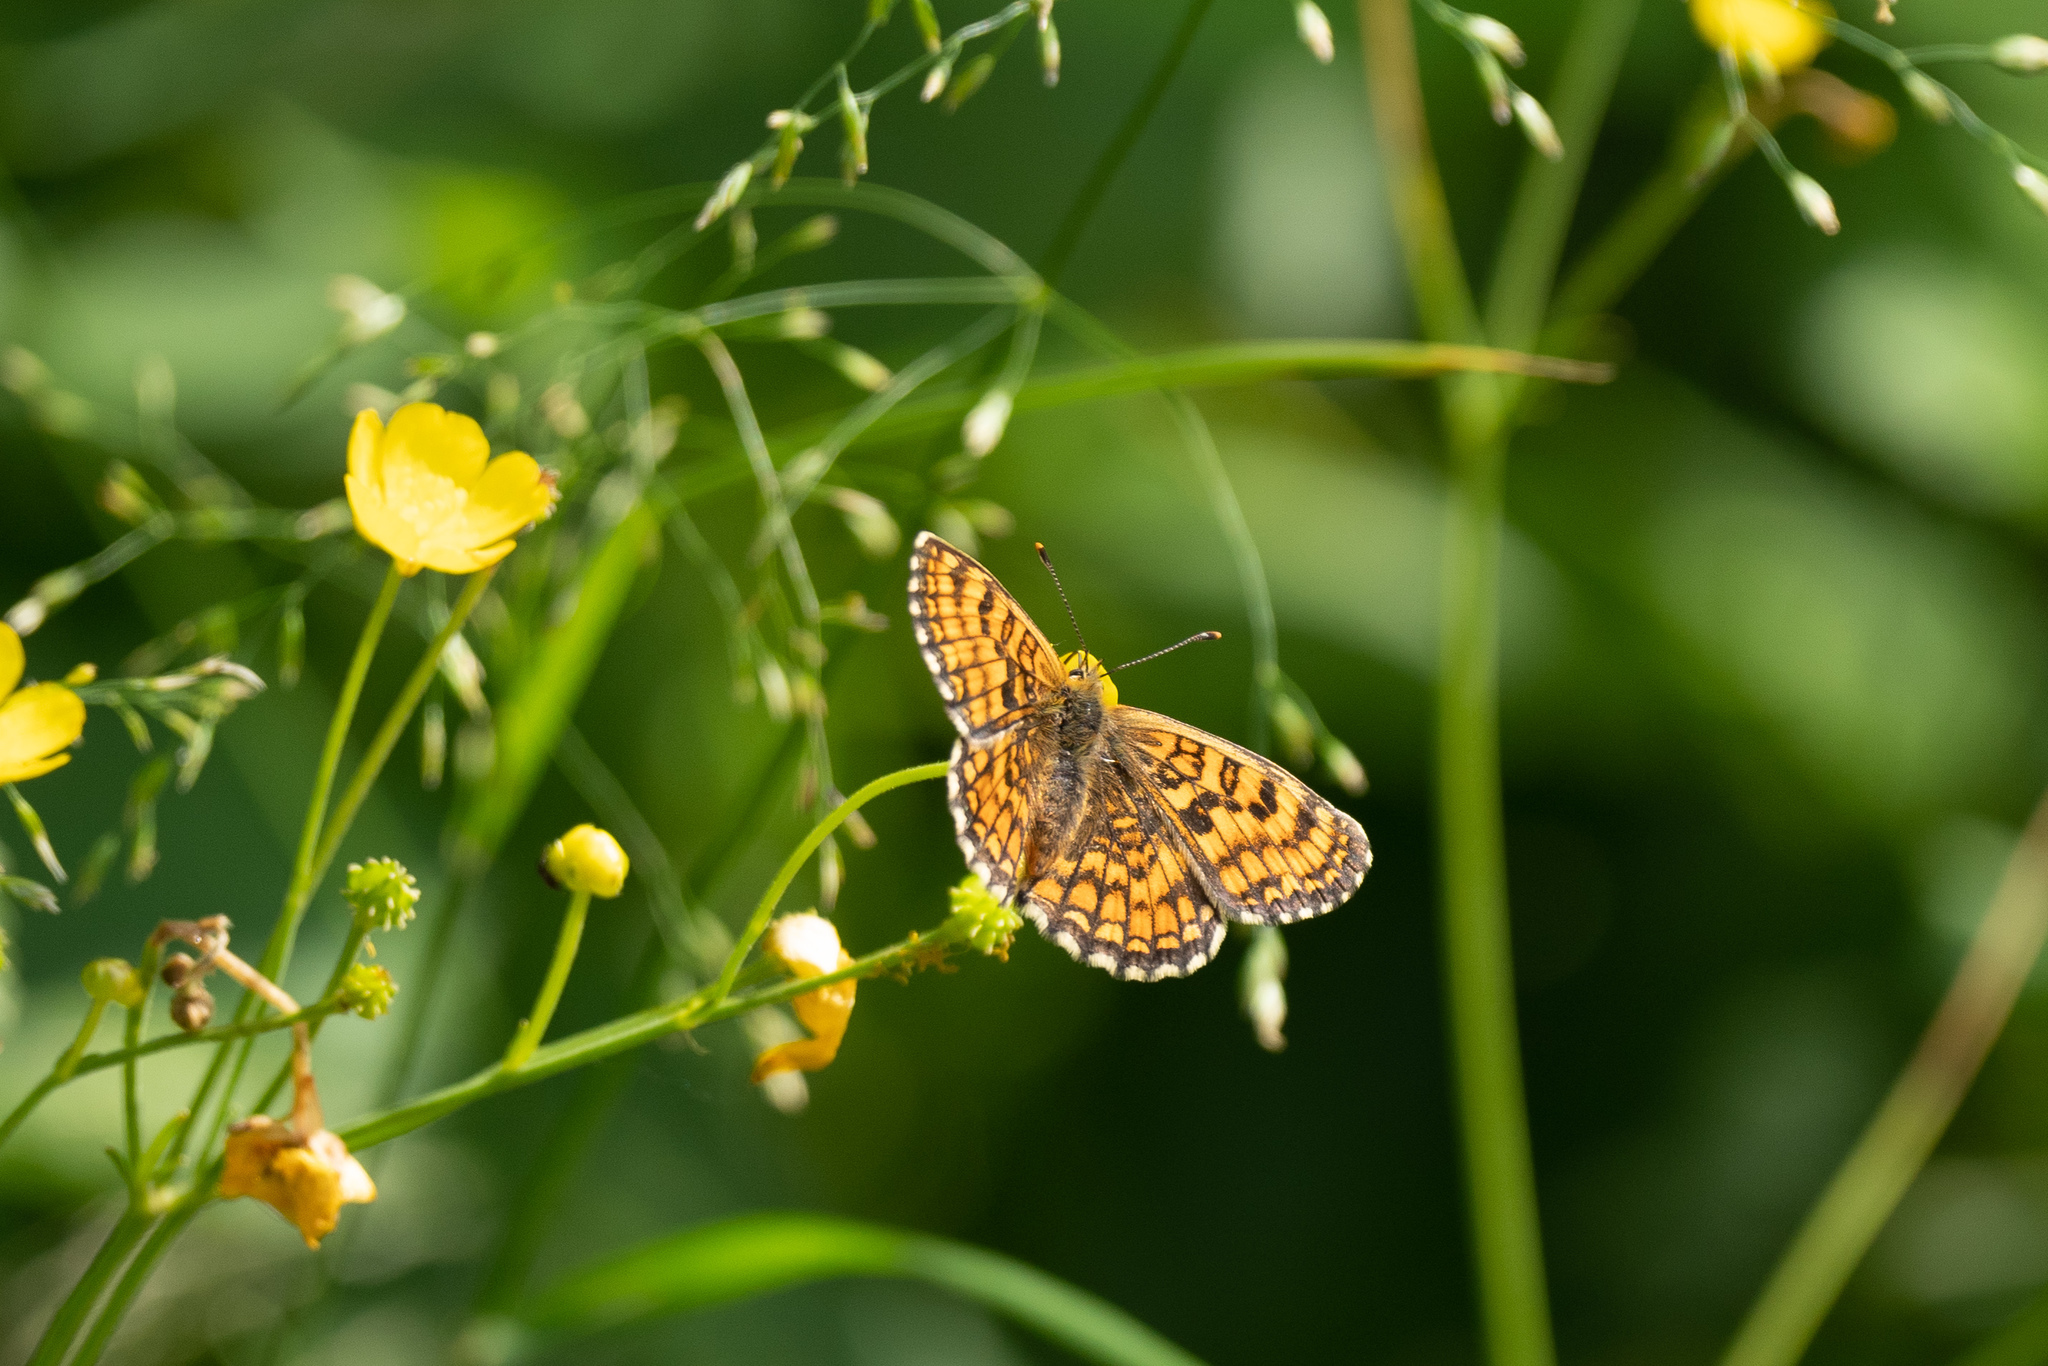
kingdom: Animalia
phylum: Arthropoda
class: Insecta
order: Lepidoptera
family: Nymphalidae
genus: Melitaea
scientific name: Melitaea athalia
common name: Heath fritillary
